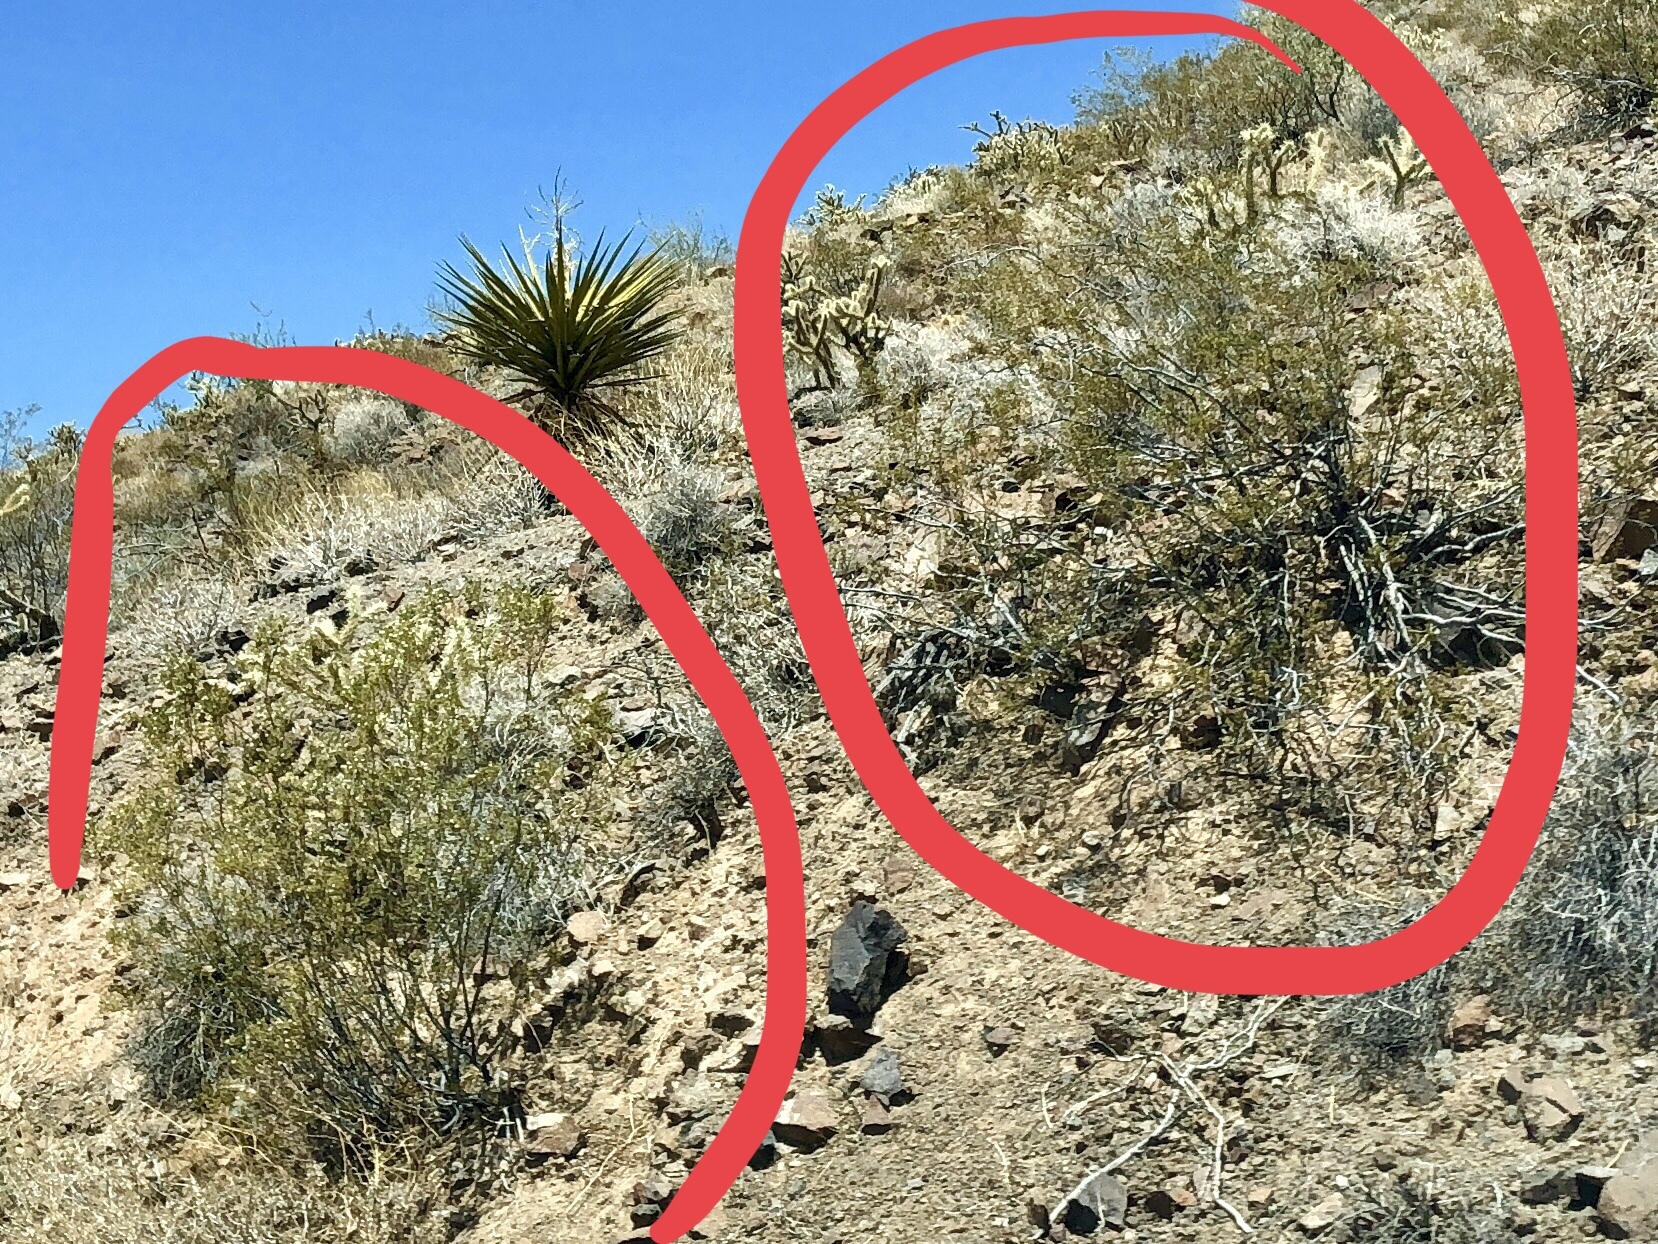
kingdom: Plantae
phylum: Tracheophyta
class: Magnoliopsida
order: Zygophyllales
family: Zygophyllaceae
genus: Larrea
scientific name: Larrea tridentata
